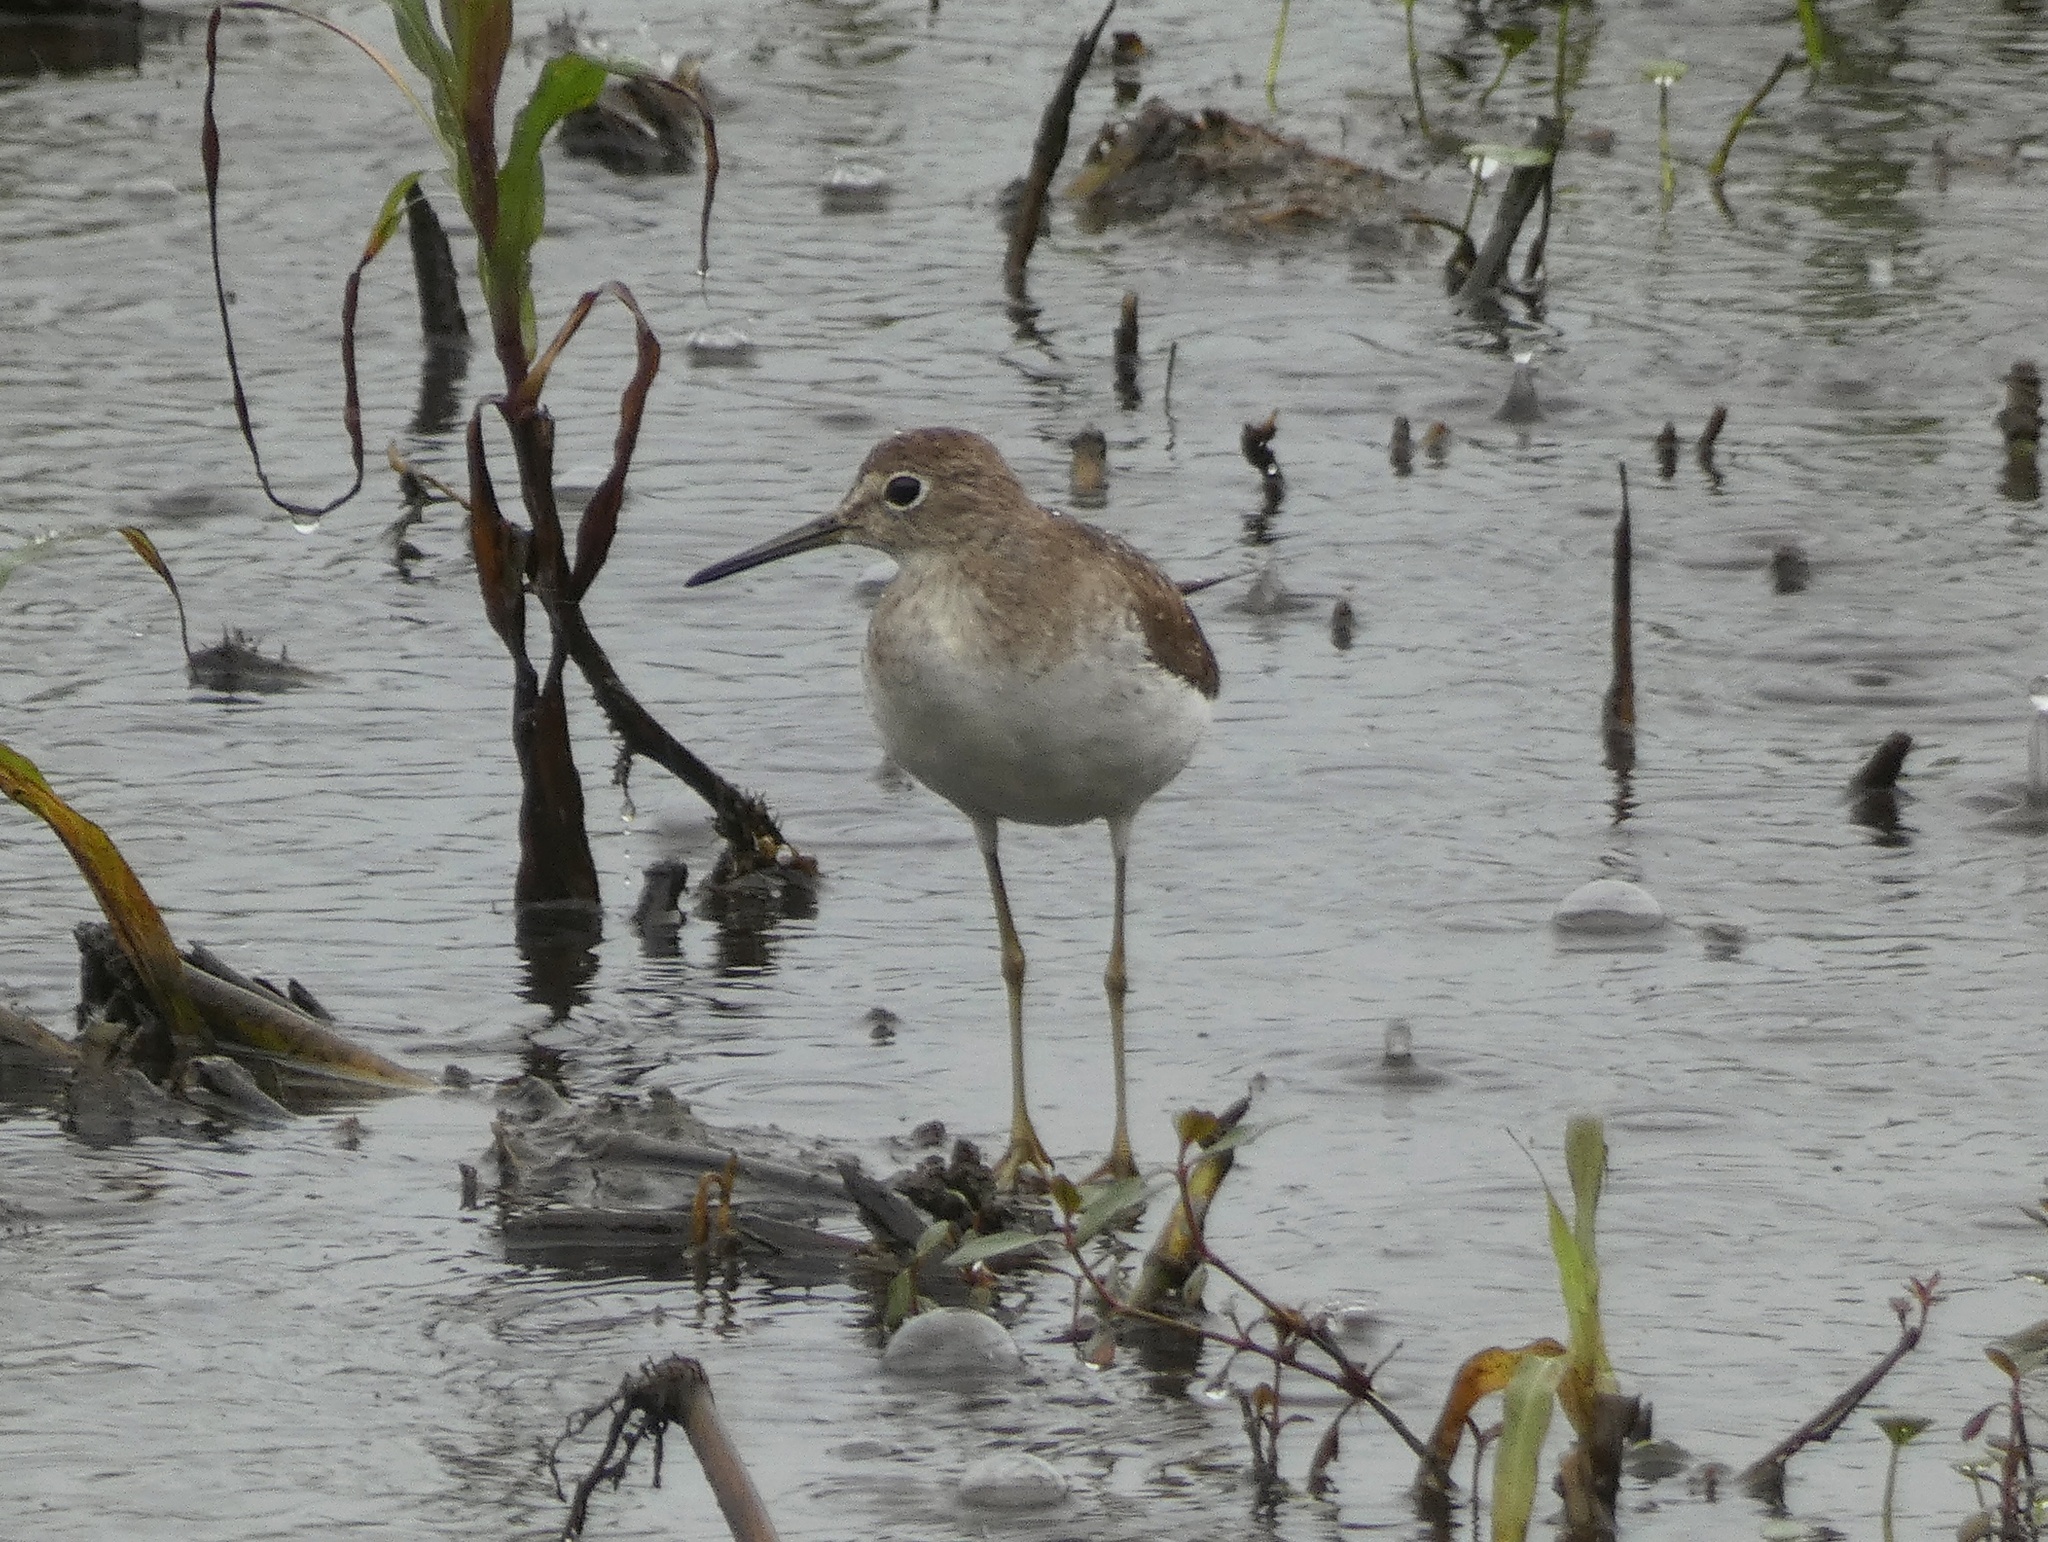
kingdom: Animalia
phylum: Chordata
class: Aves
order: Charadriiformes
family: Scolopacidae
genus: Tringa
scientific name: Tringa solitaria
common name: Solitary sandpiper
